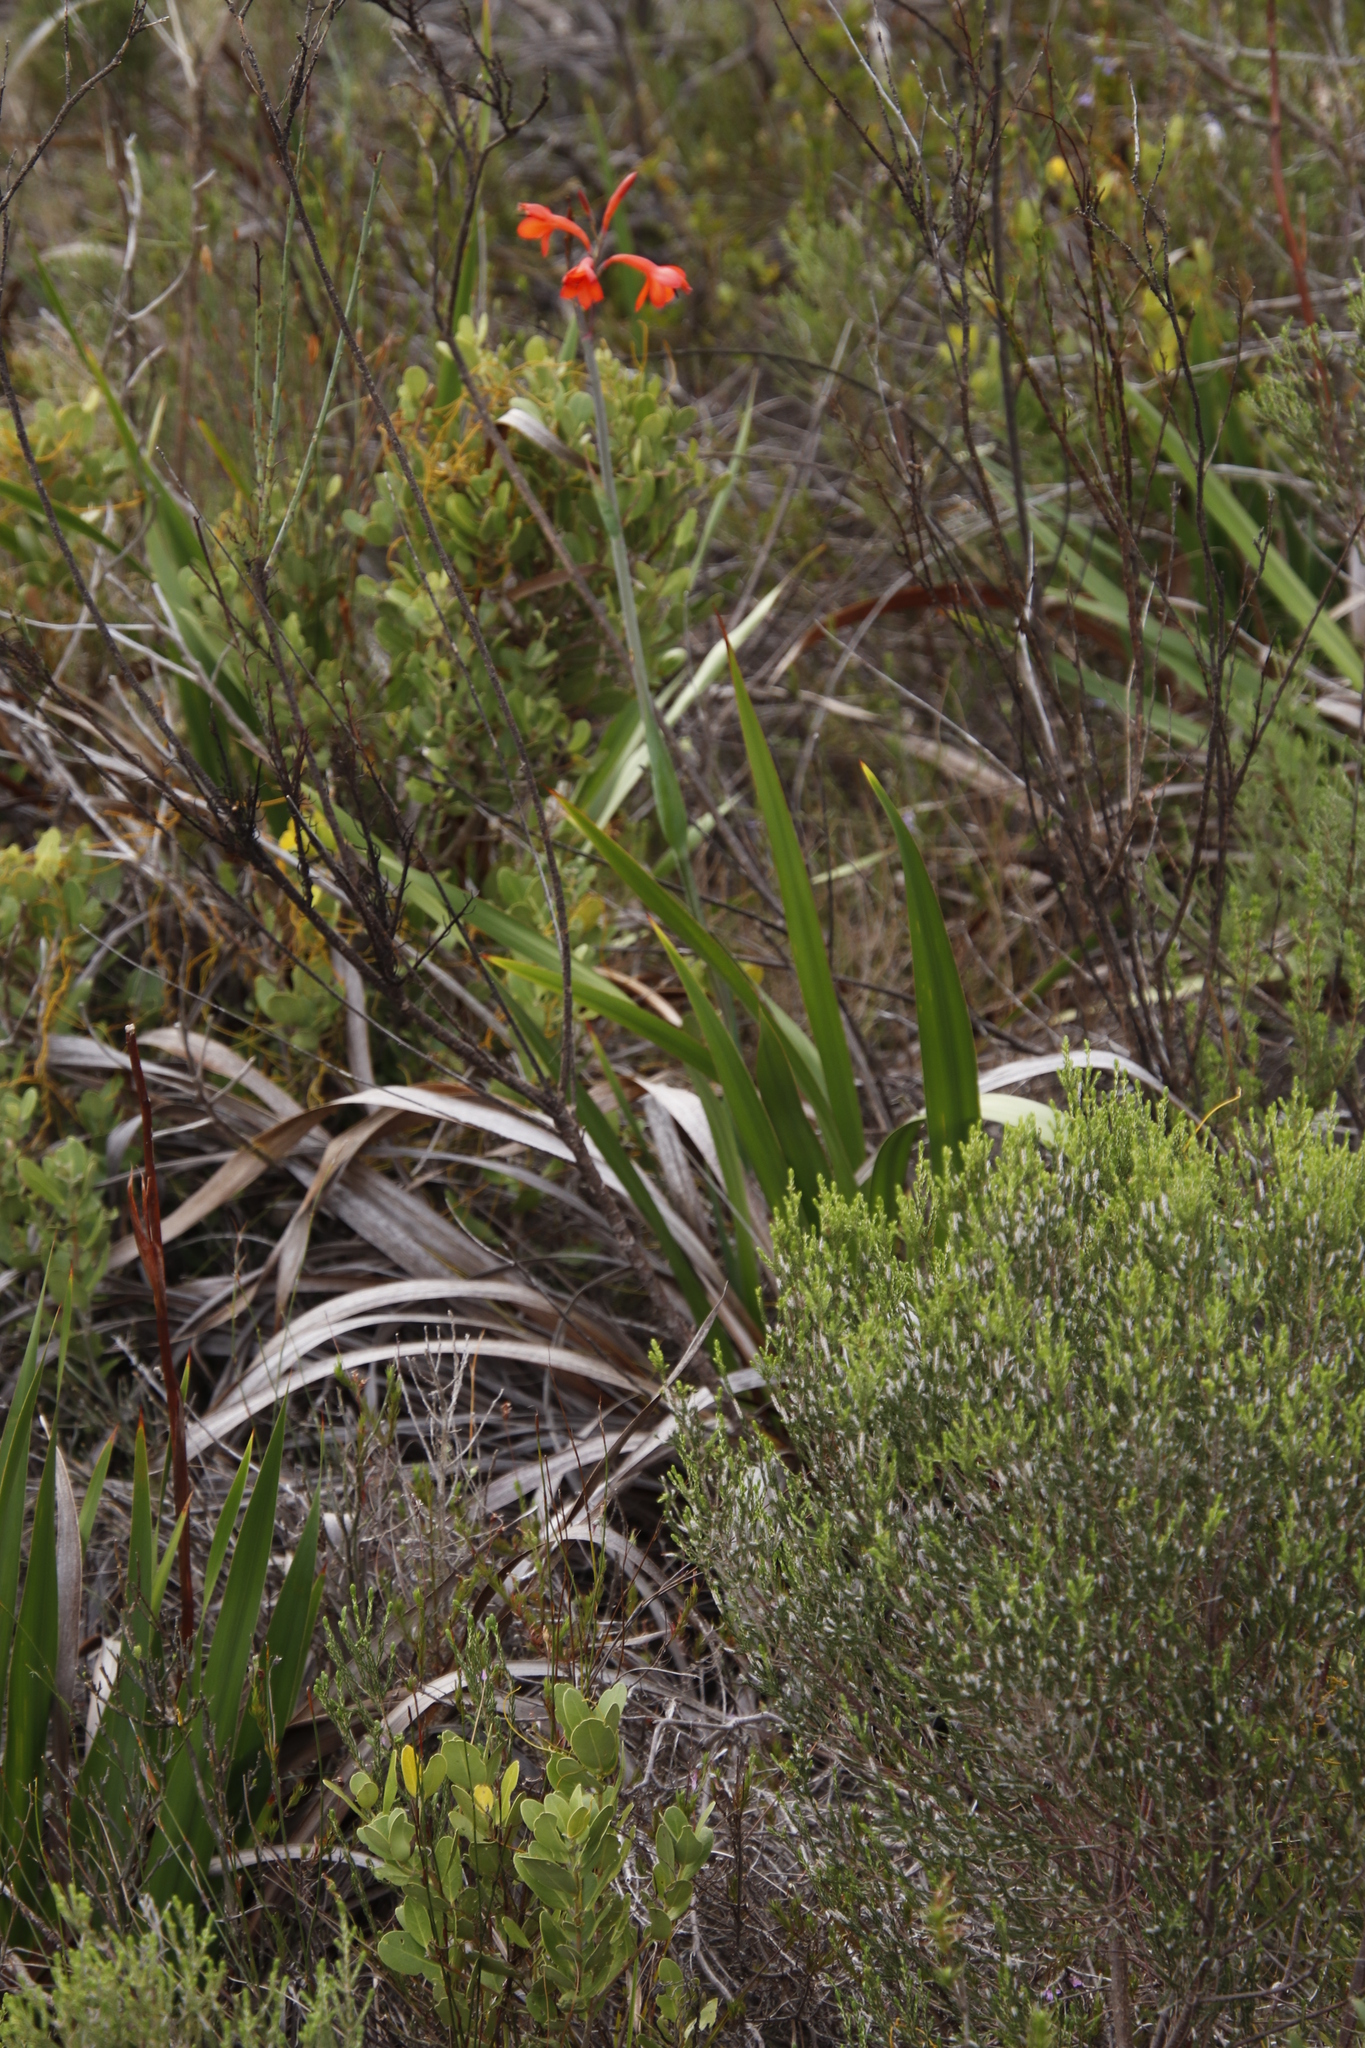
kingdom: Plantae
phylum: Tracheophyta
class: Liliopsida
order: Asparagales
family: Iridaceae
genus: Watsonia
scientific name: Watsonia tabularis
